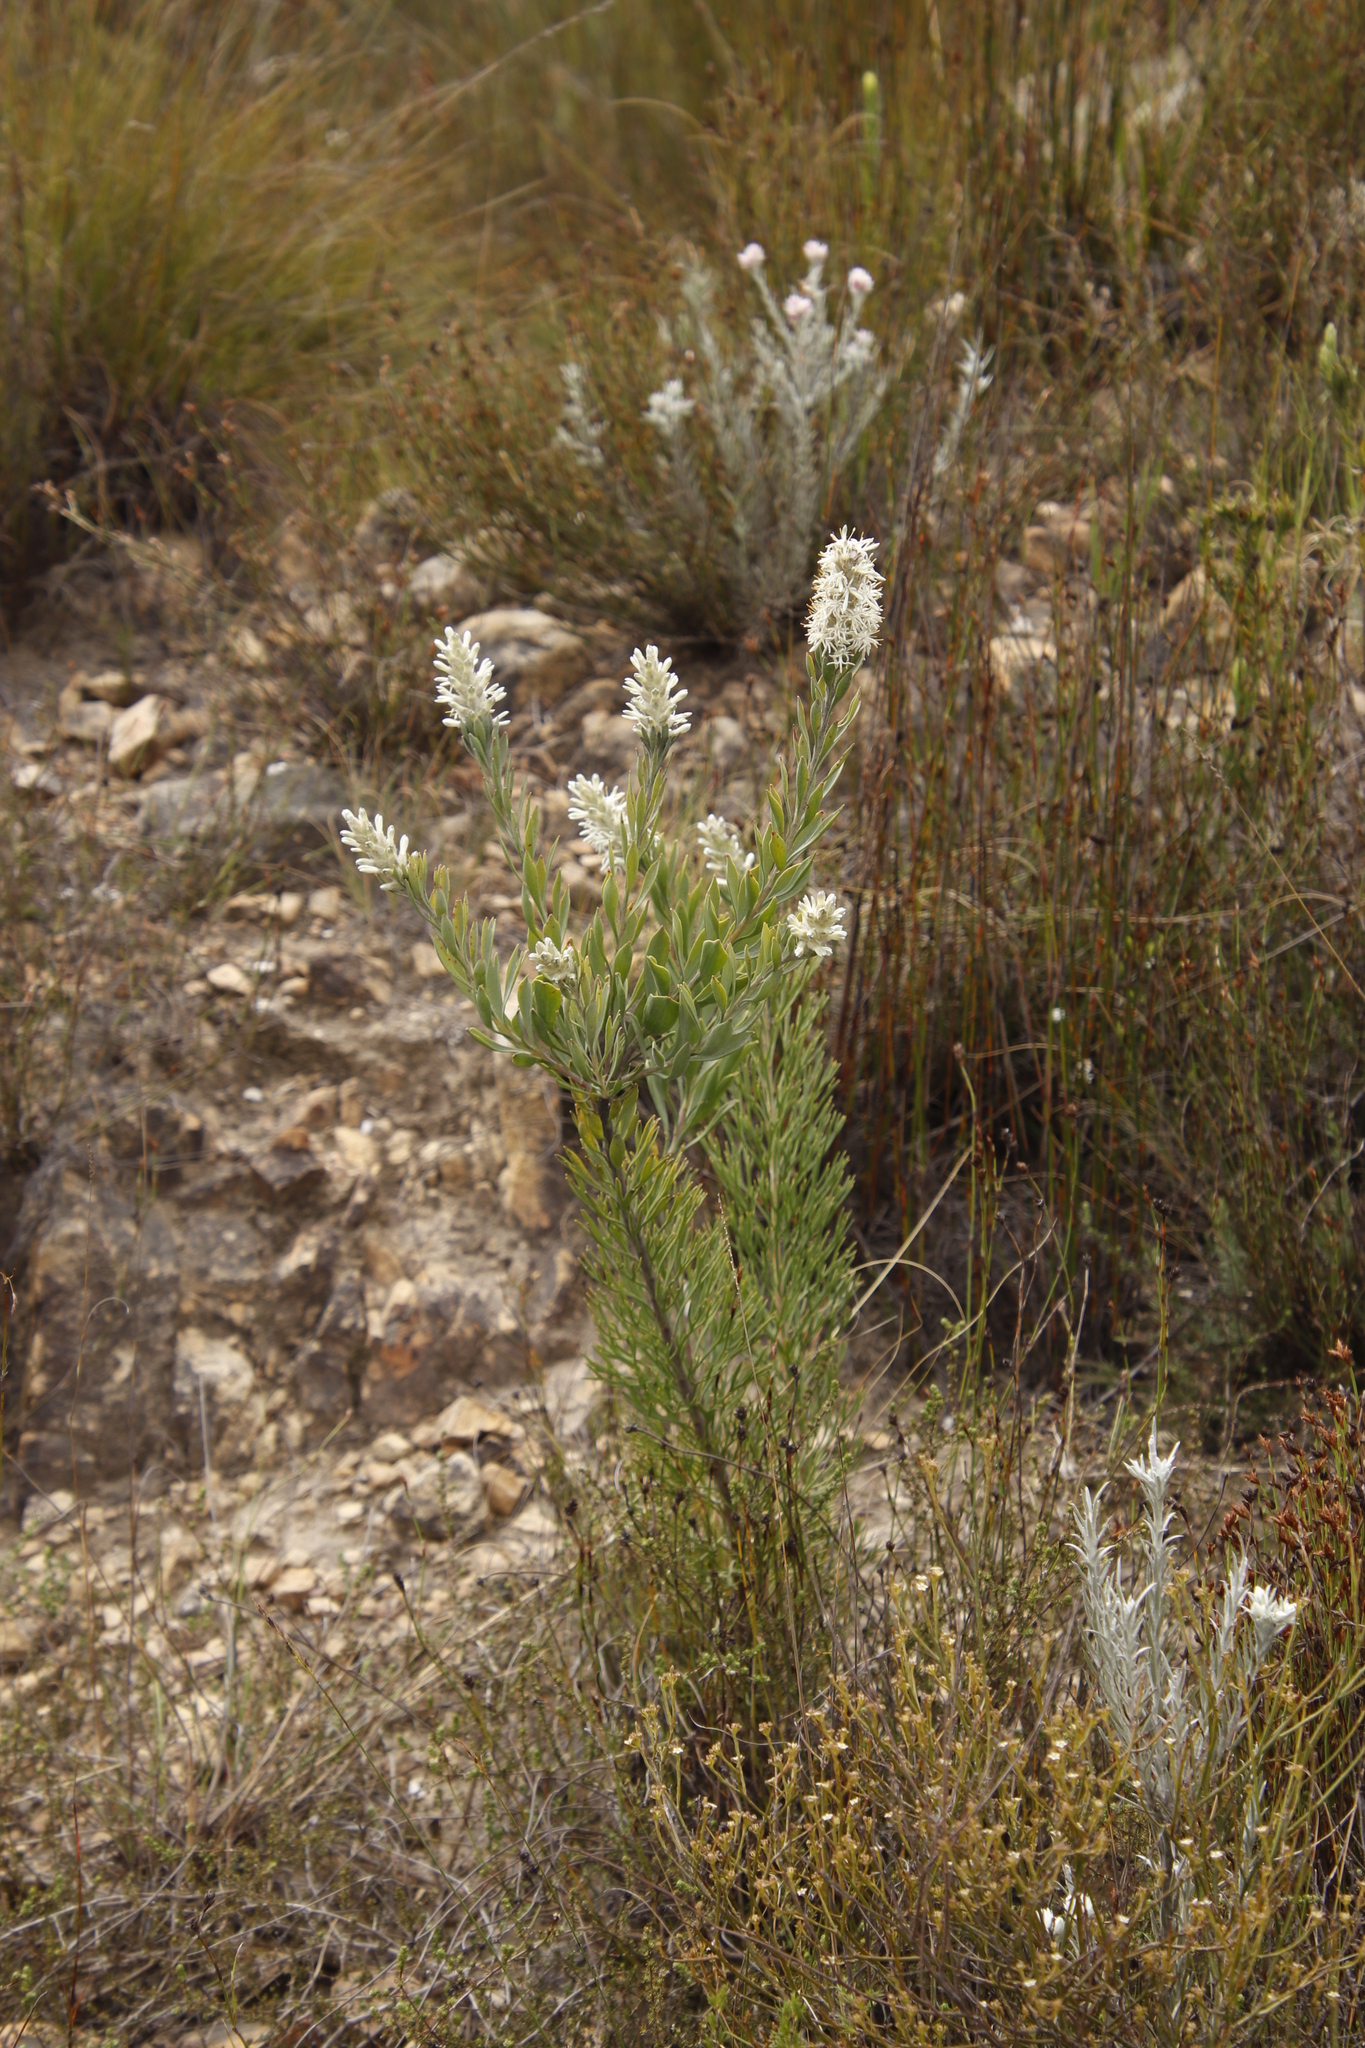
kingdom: Plantae
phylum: Tracheophyta
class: Magnoliopsida
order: Proteales
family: Proteaceae
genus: Paranomus
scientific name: Paranomus dregei
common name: Scented sceptre
